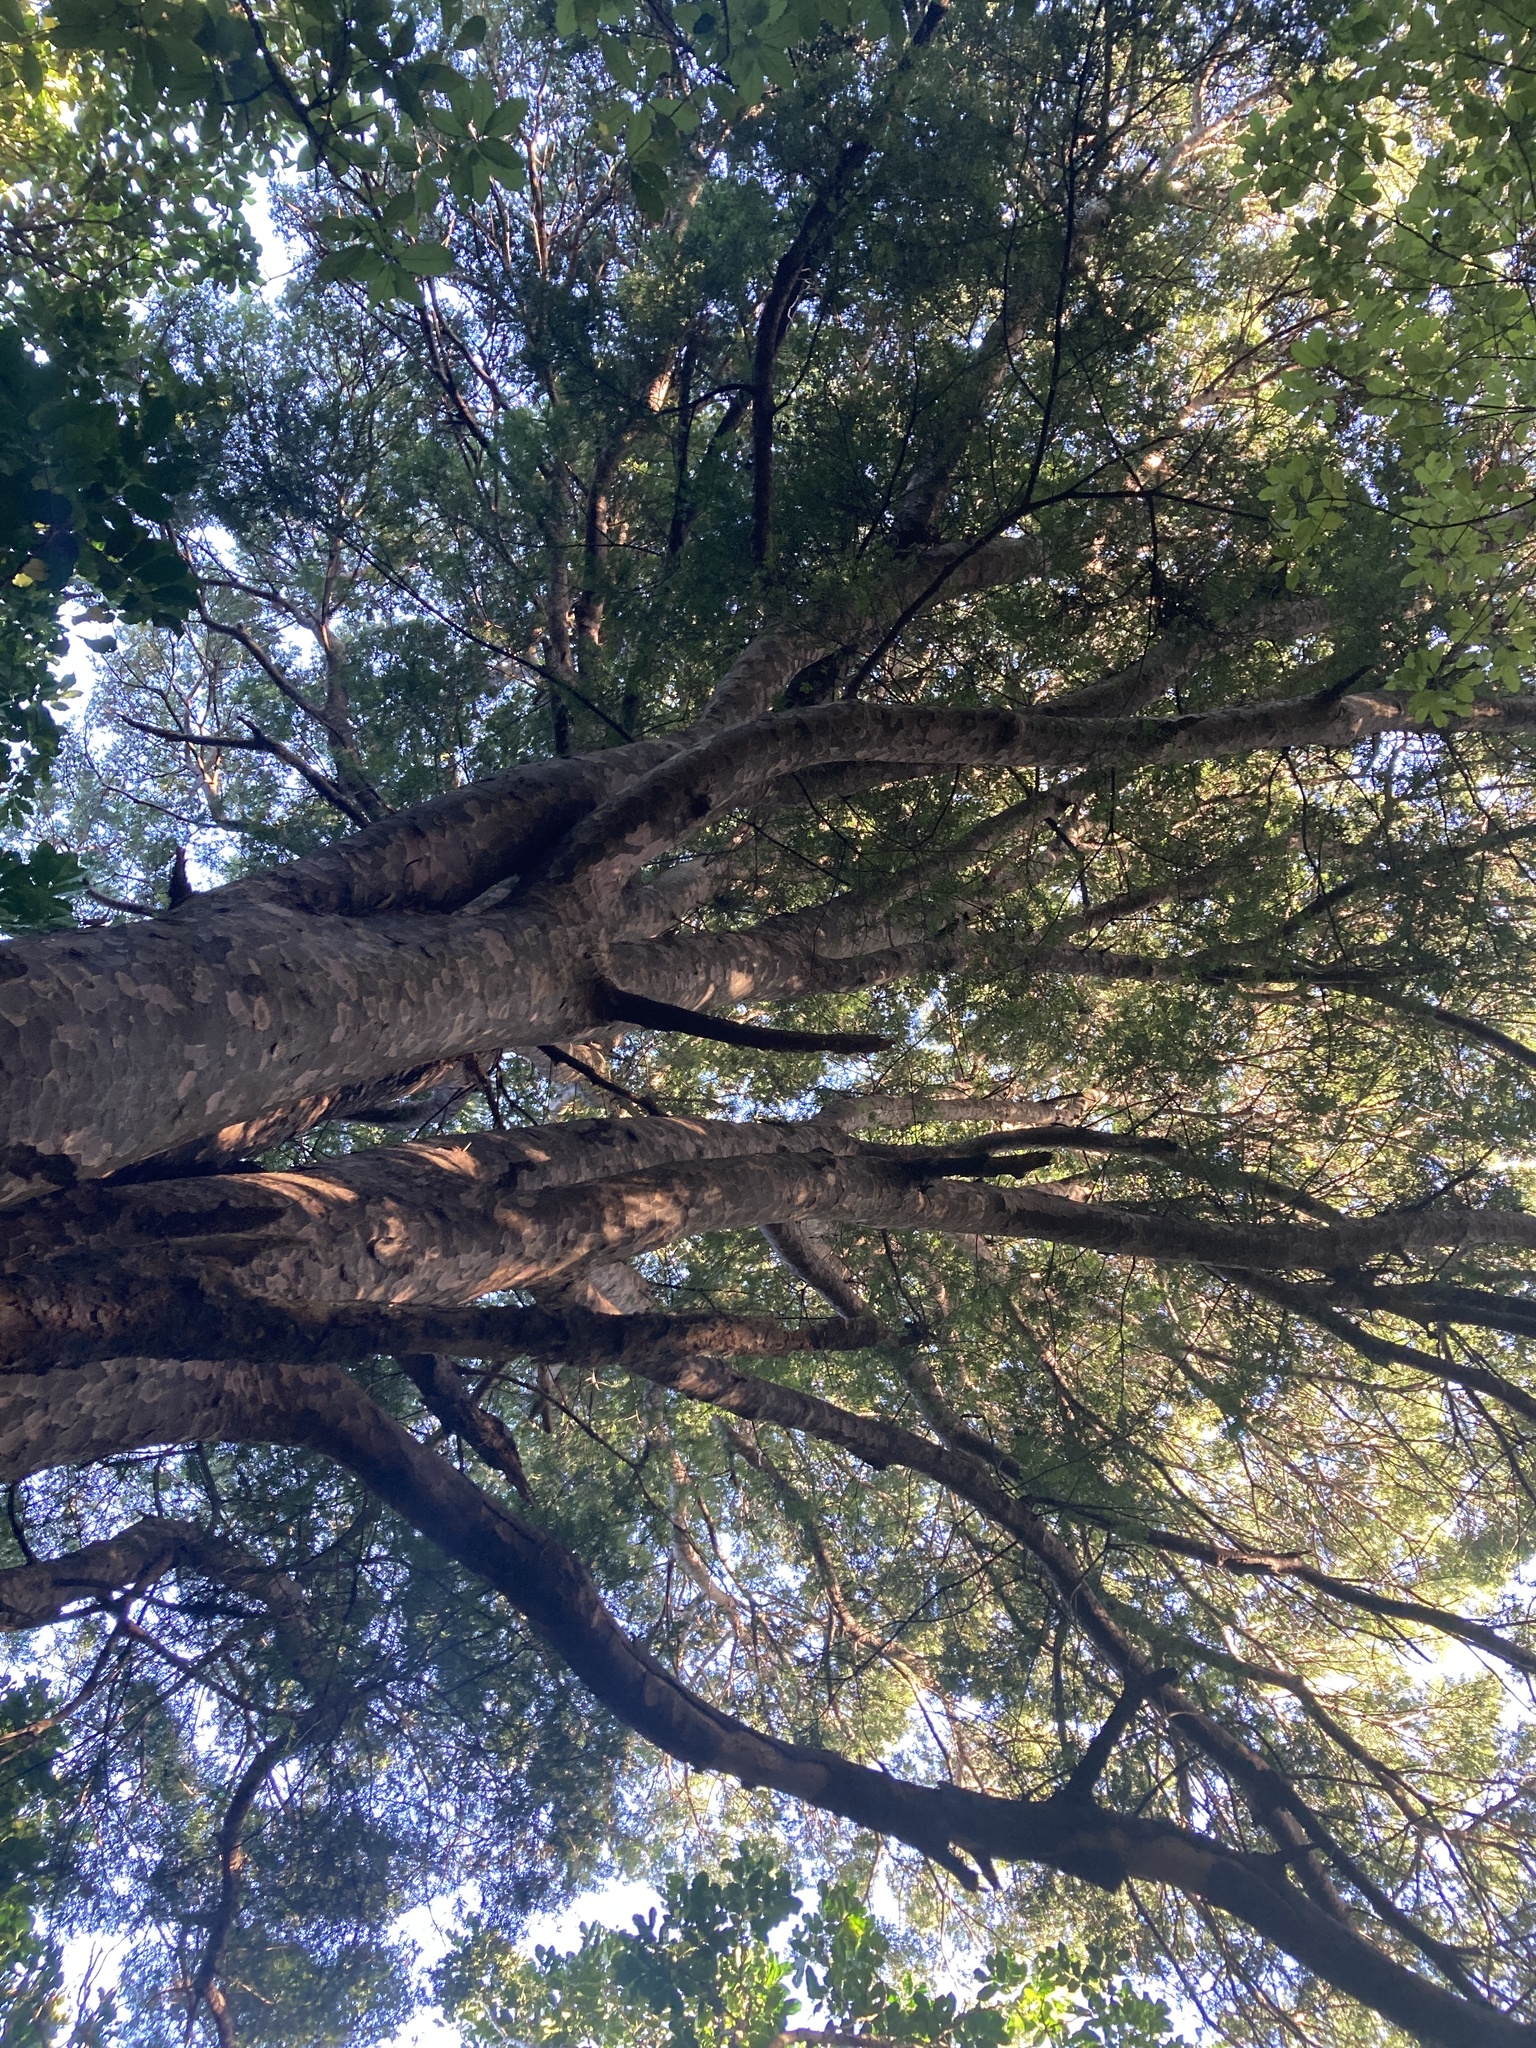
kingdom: Plantae
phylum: Tracheophyta
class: Pinopsida
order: Pinales
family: Podocarpaceae
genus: Prumnopitys
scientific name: Prumnopitys taxifolia
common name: Matai
